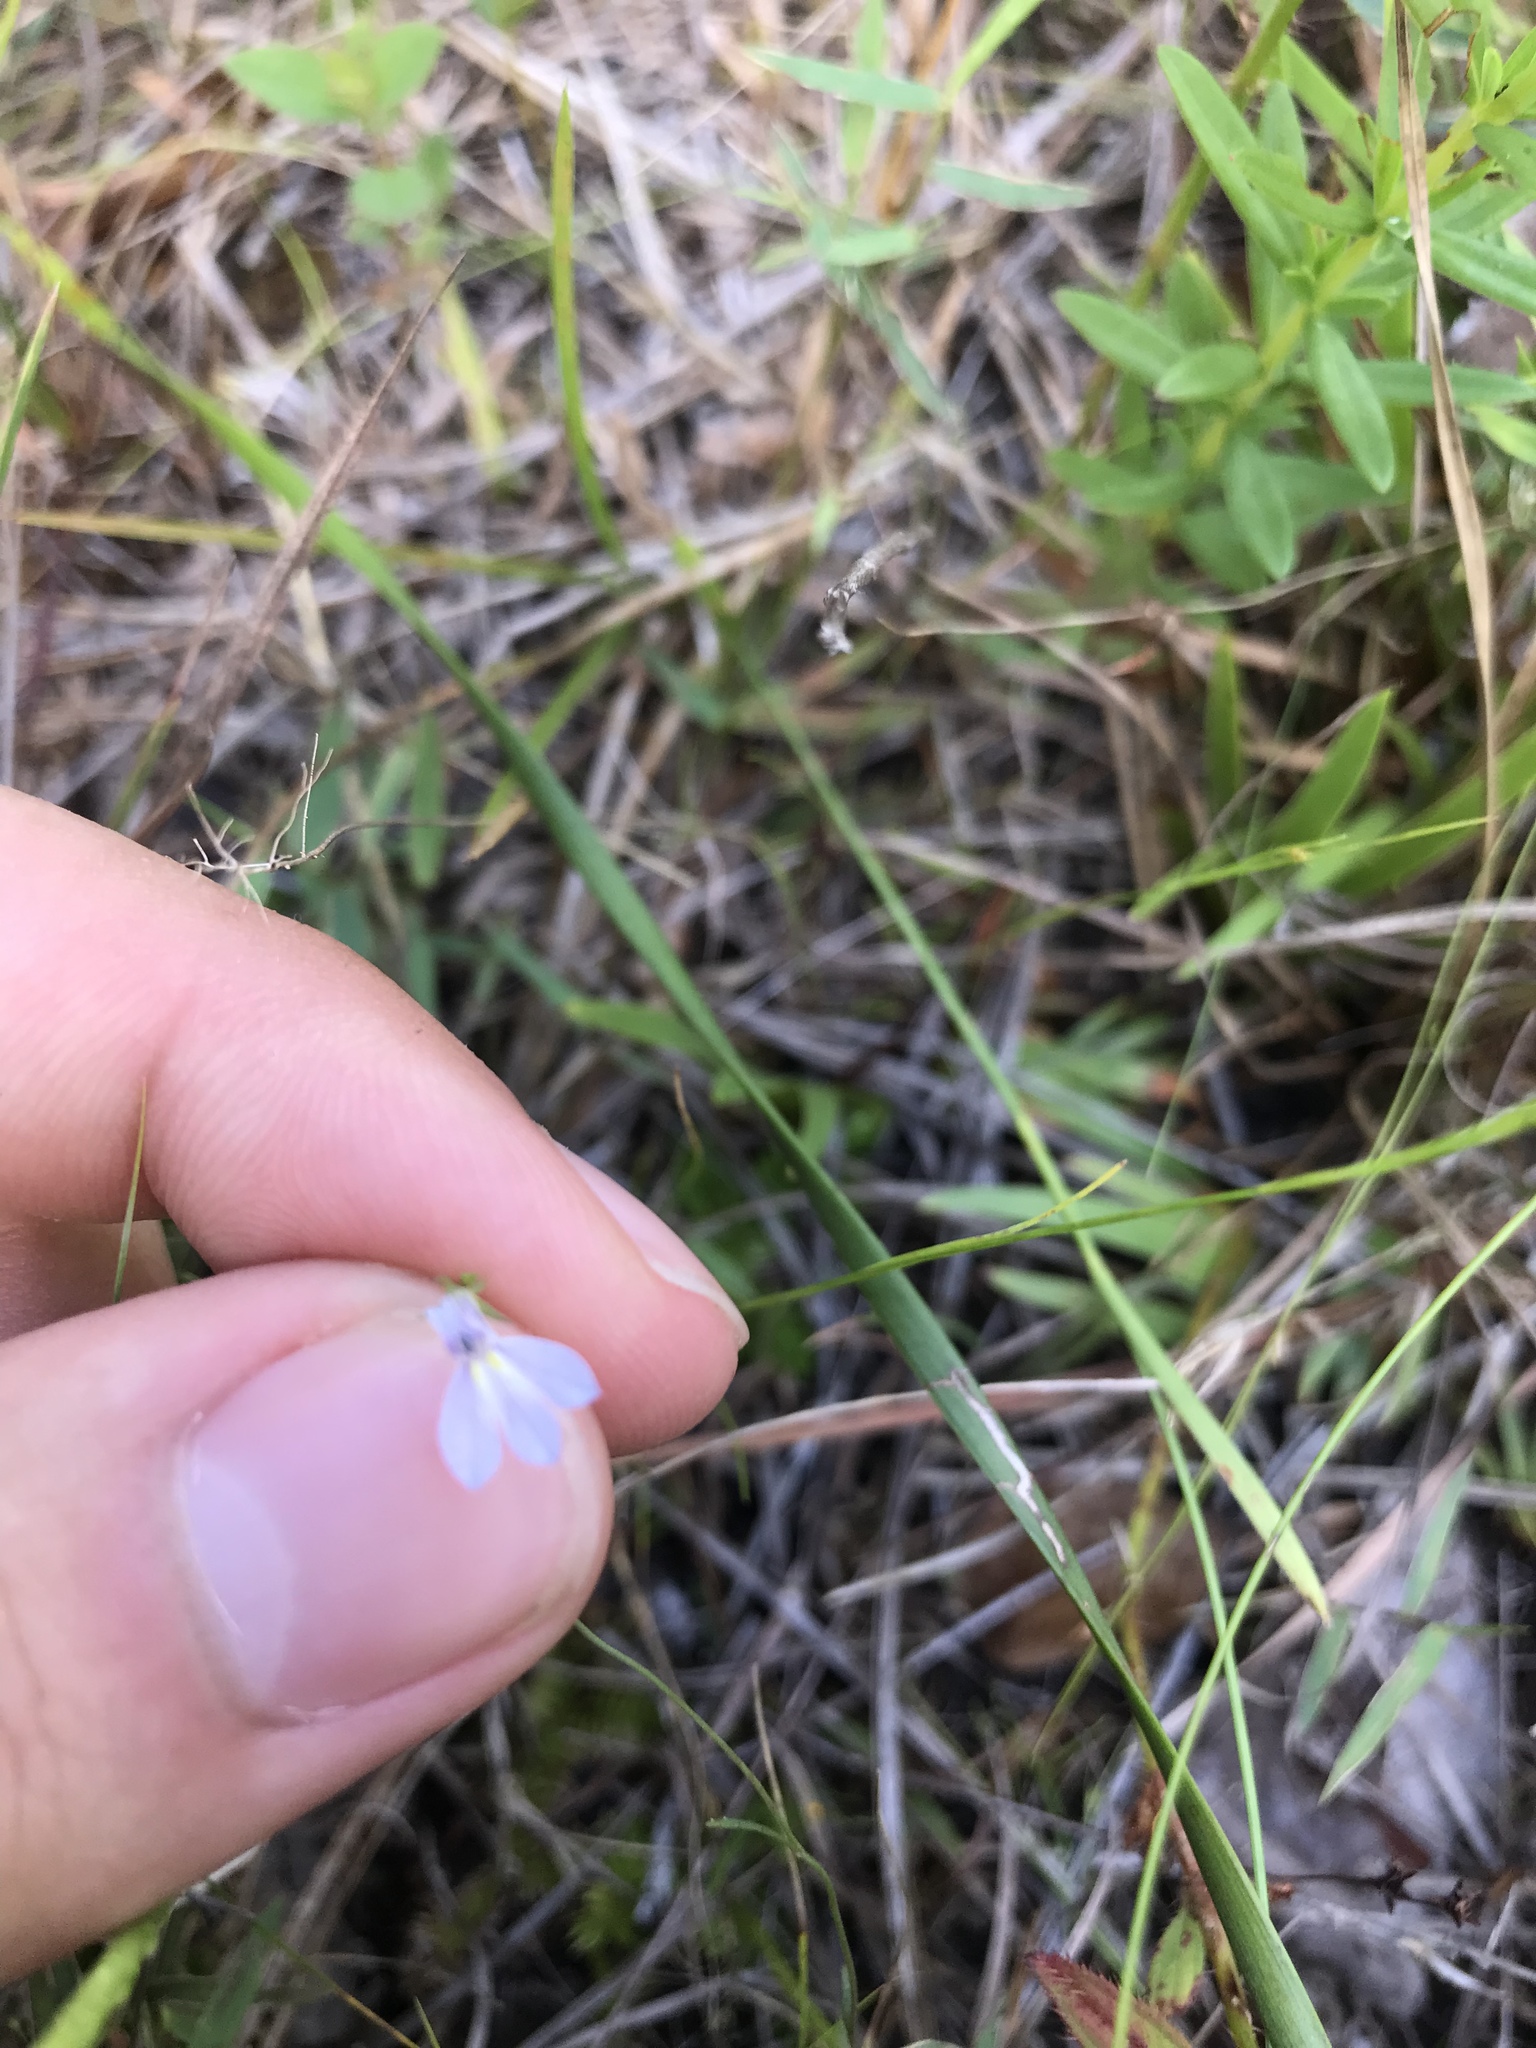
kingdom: Plantae
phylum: Tracheophyta
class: Magnoliopsida
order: Asterales
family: Campanulaceae
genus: Lobelia
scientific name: Lobelia nuttallii
